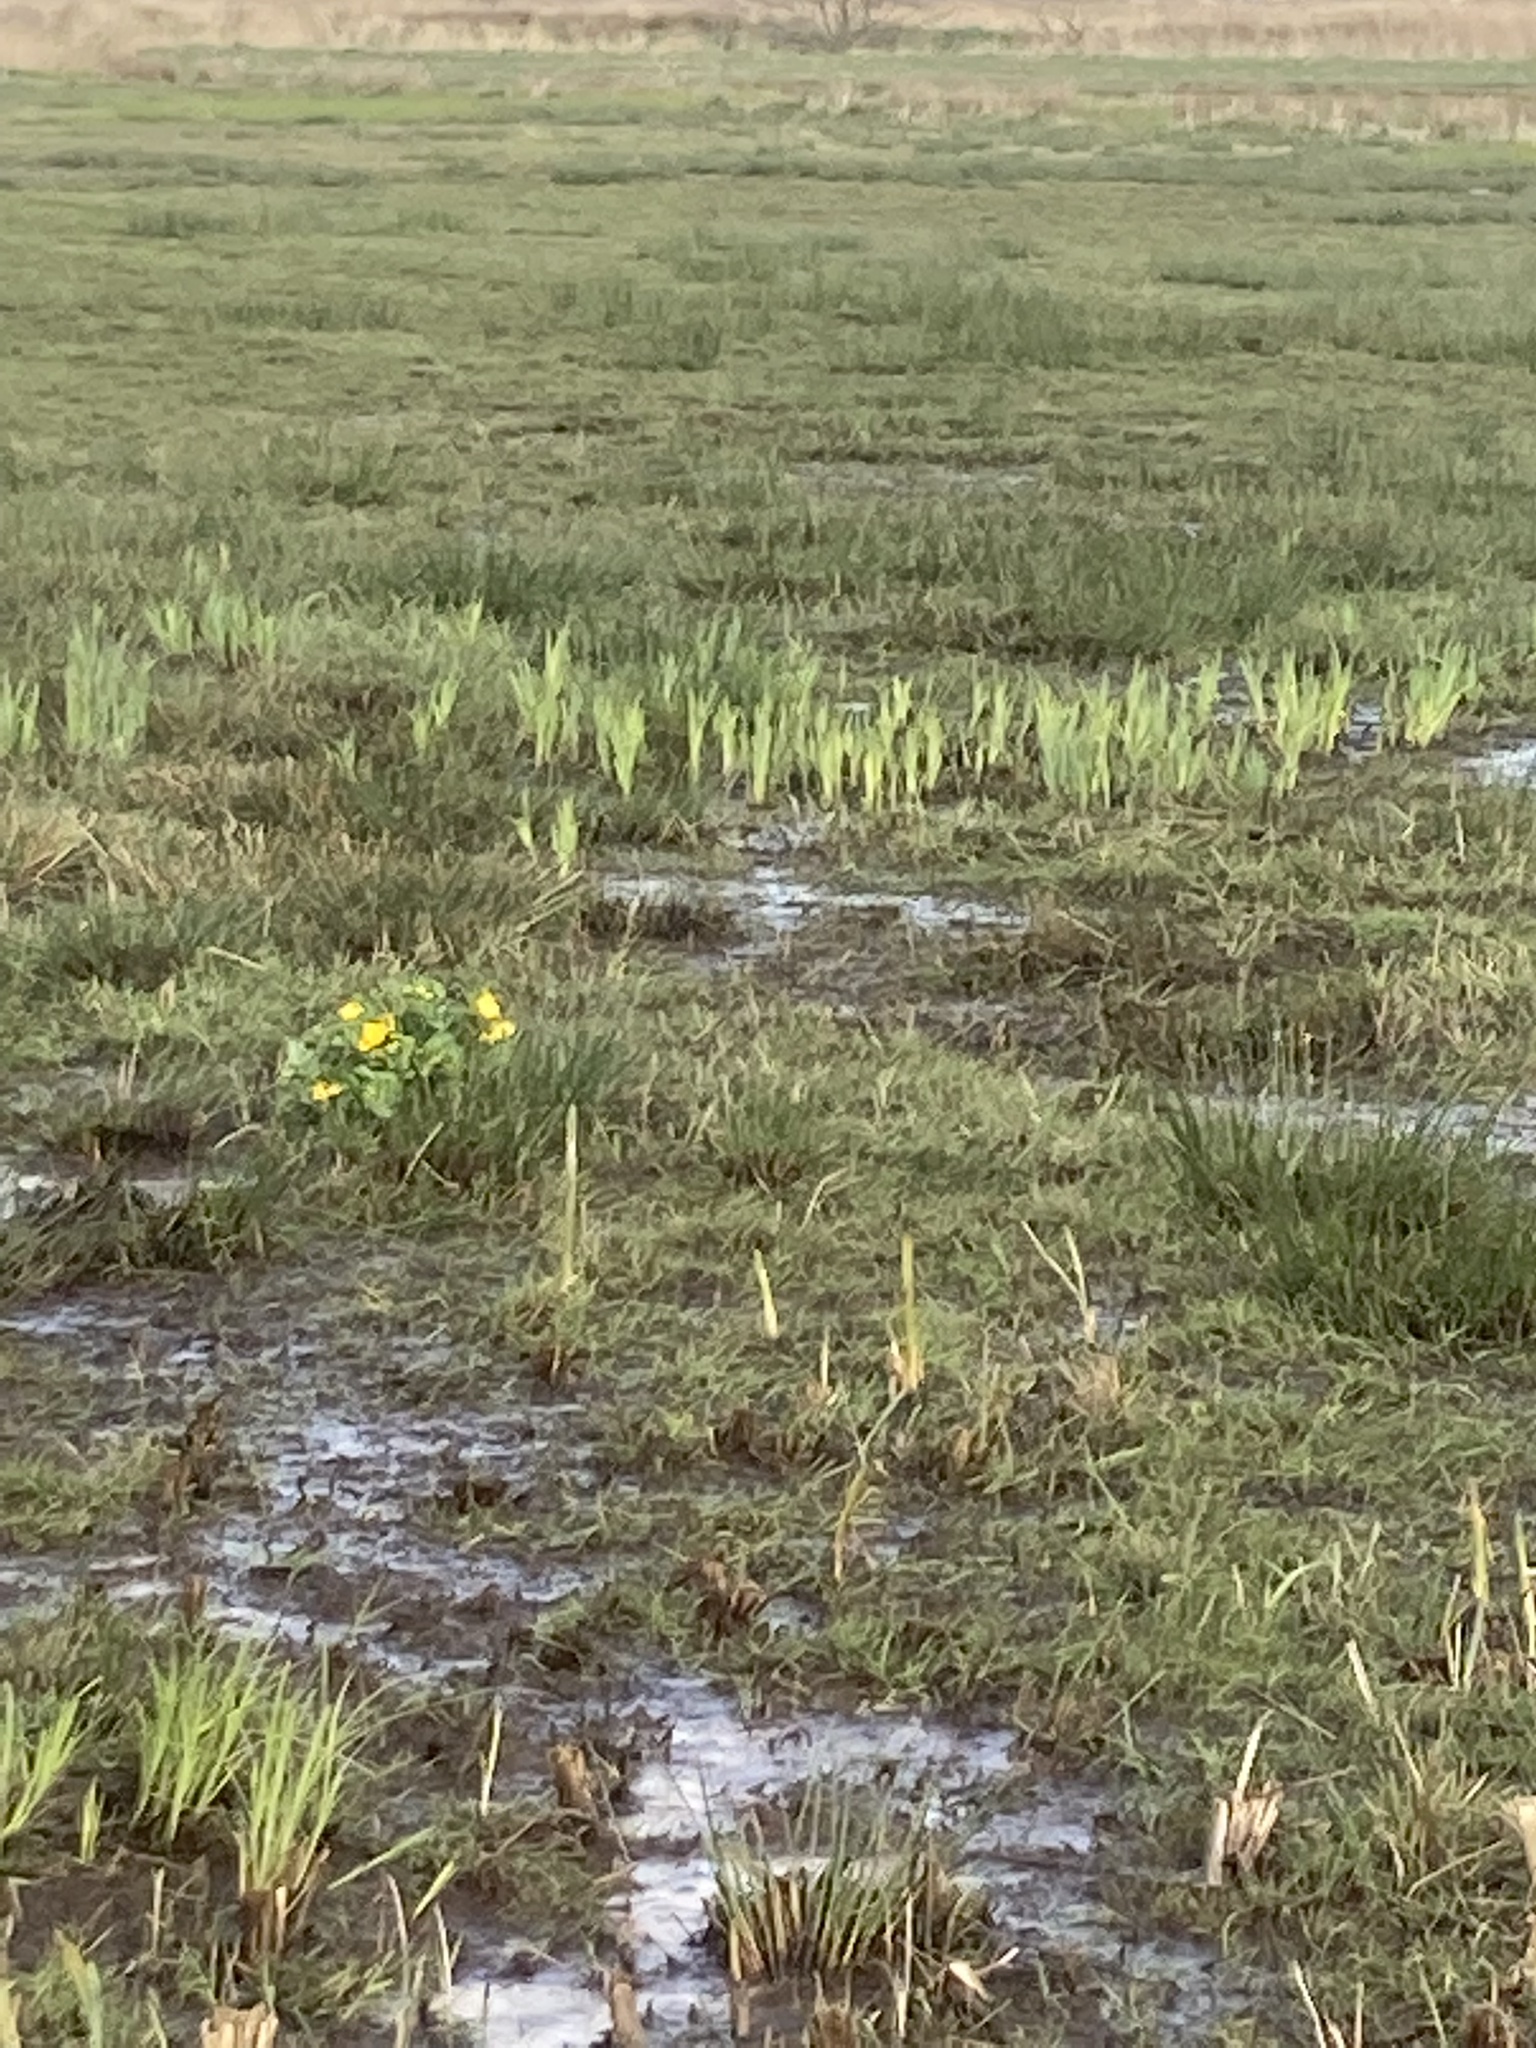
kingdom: Plantae
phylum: Tracheophyta
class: Magnoliopsida
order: Ranunculales
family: Ranunculaceae
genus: Caltha
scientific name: Caltha palustris
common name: Marsh marigold
